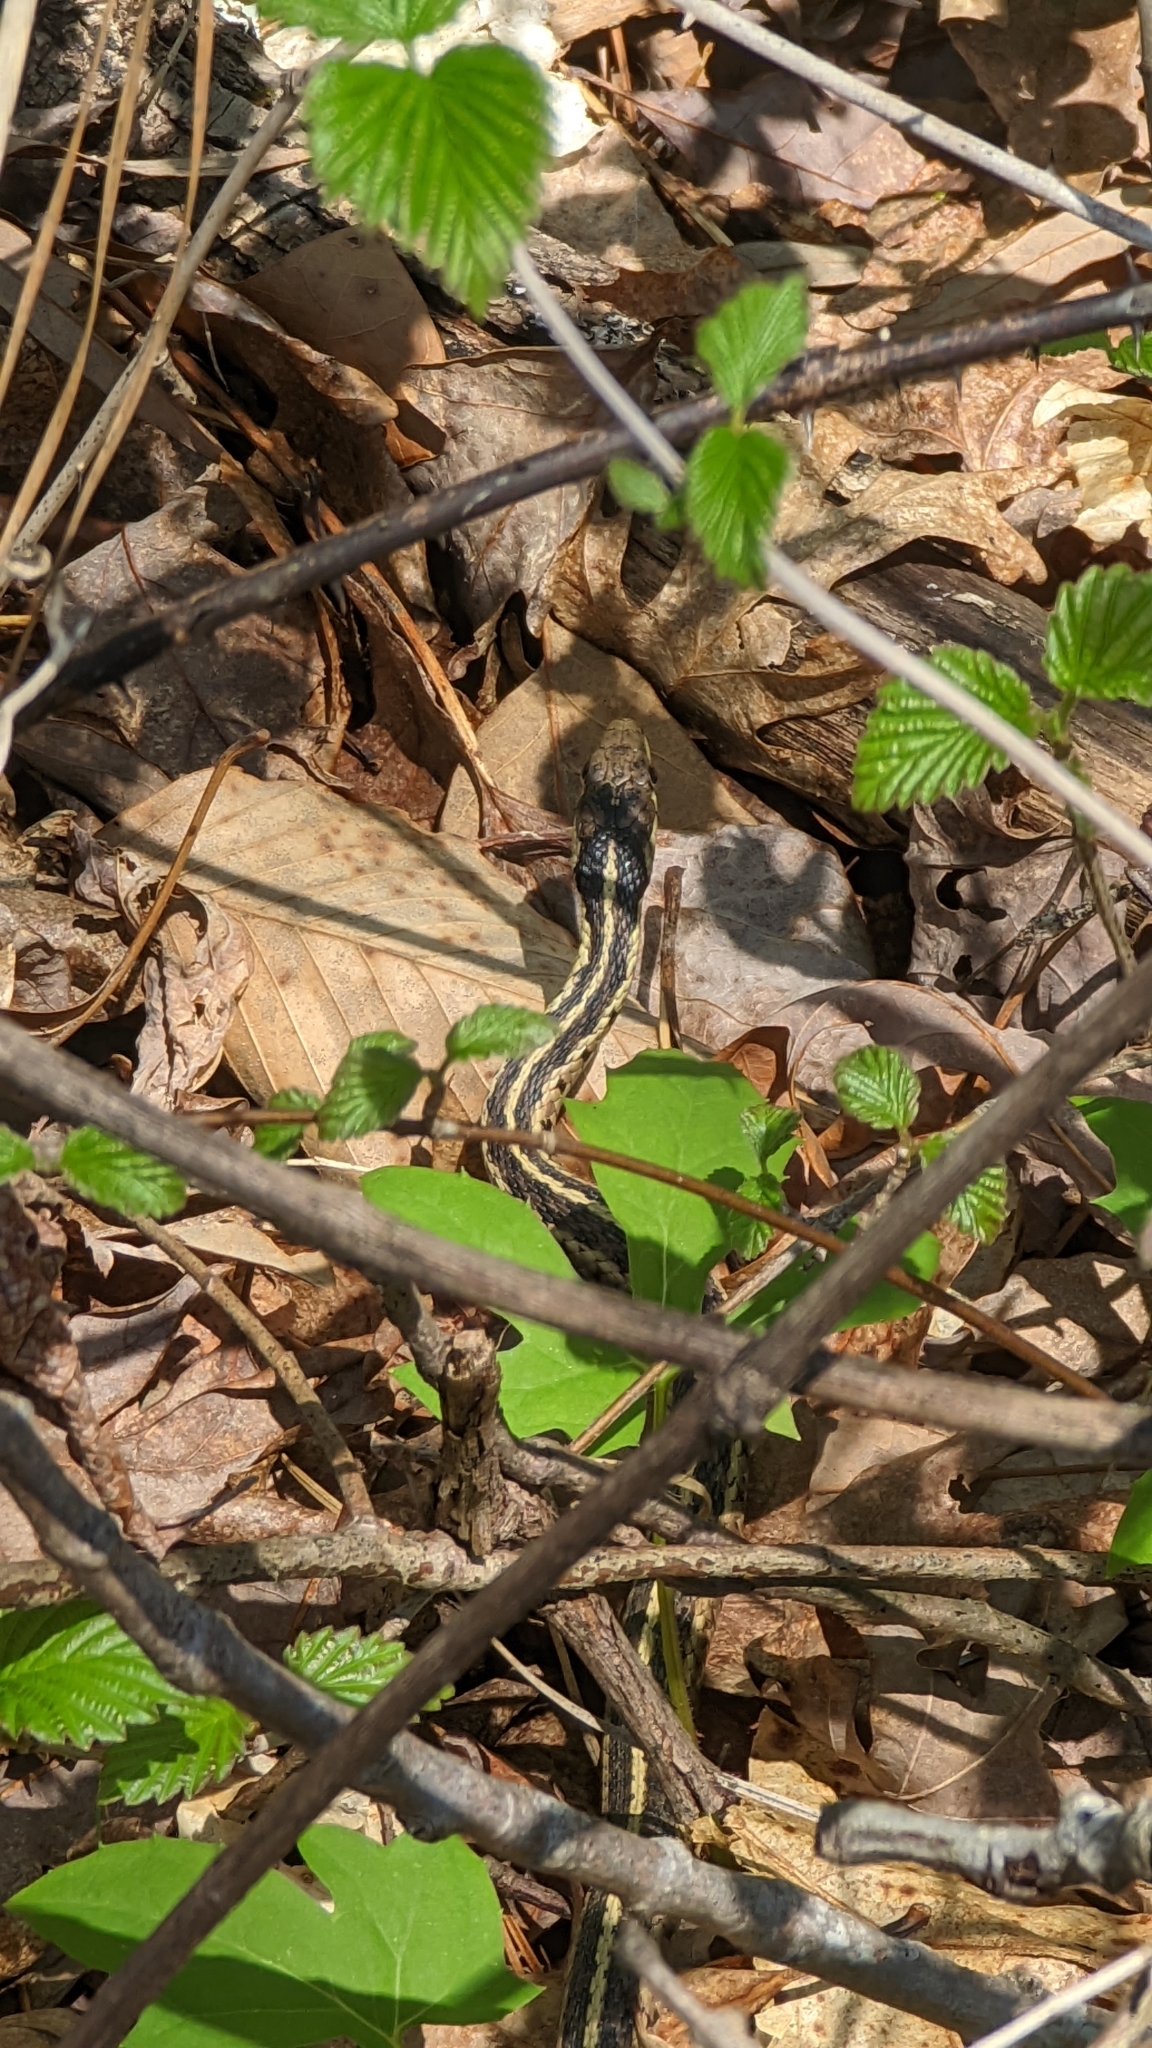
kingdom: Animalia
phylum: Chordata
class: Squamata
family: Colubridae
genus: Thamnophis
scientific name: Thamnophis sirtalis
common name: Common garter snake
